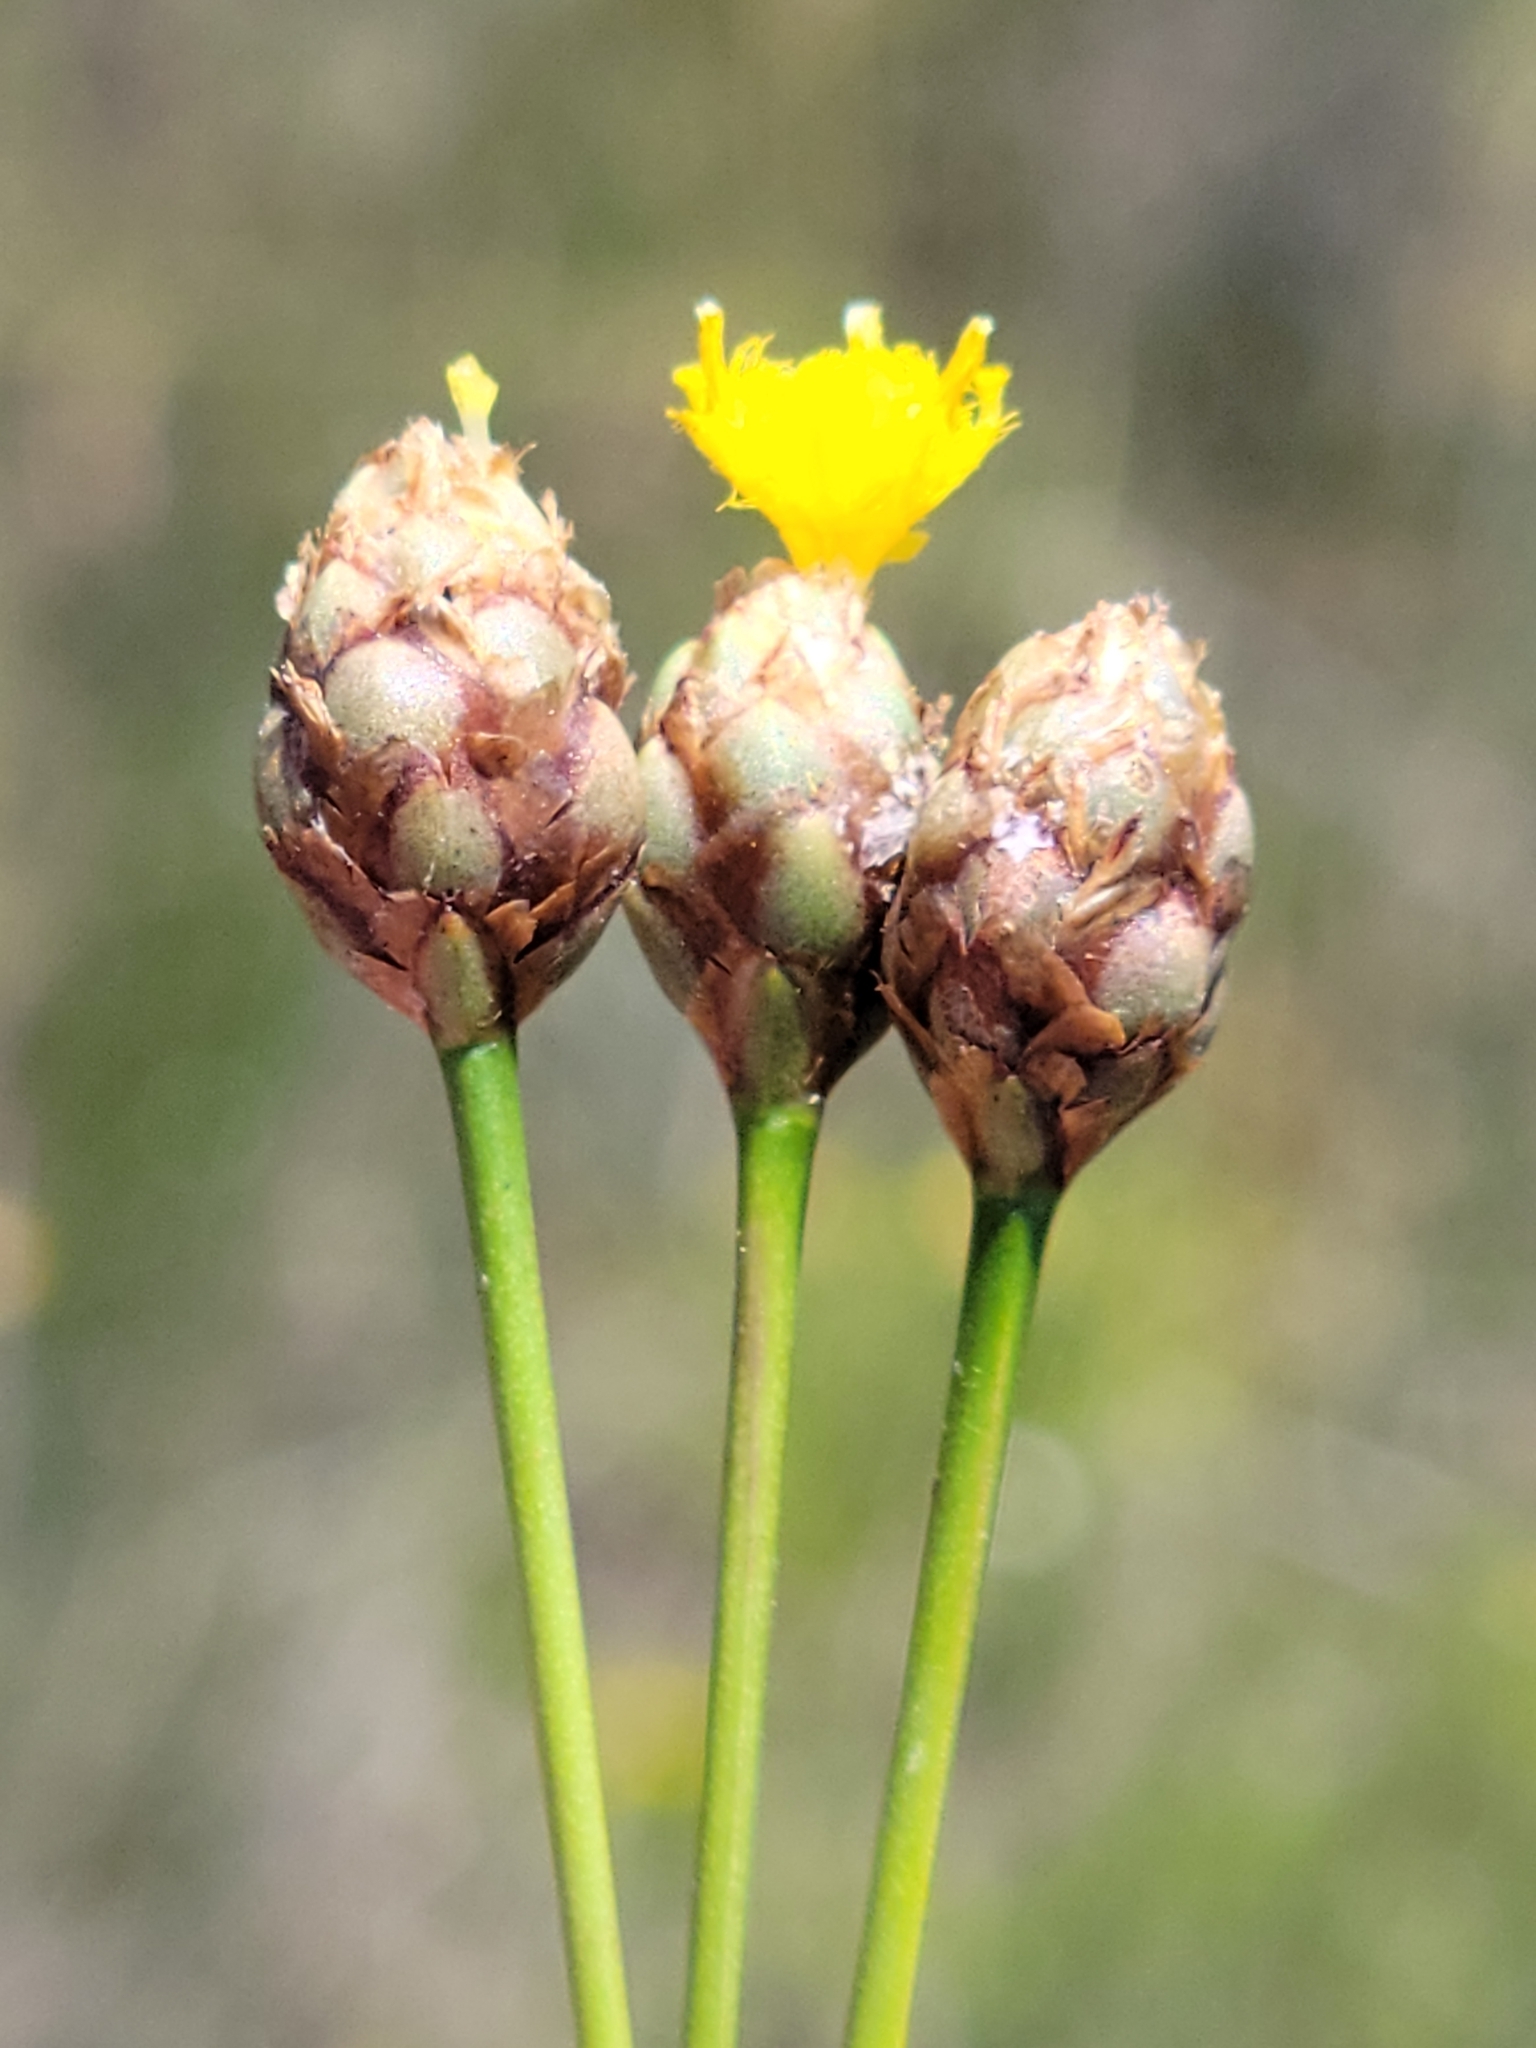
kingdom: Plantae
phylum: Tracheophyta
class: Liliopsida
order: Poales
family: Xyridaceae
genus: Xyris
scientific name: Xyris elliottii
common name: Elliot's yelloweyed grass
